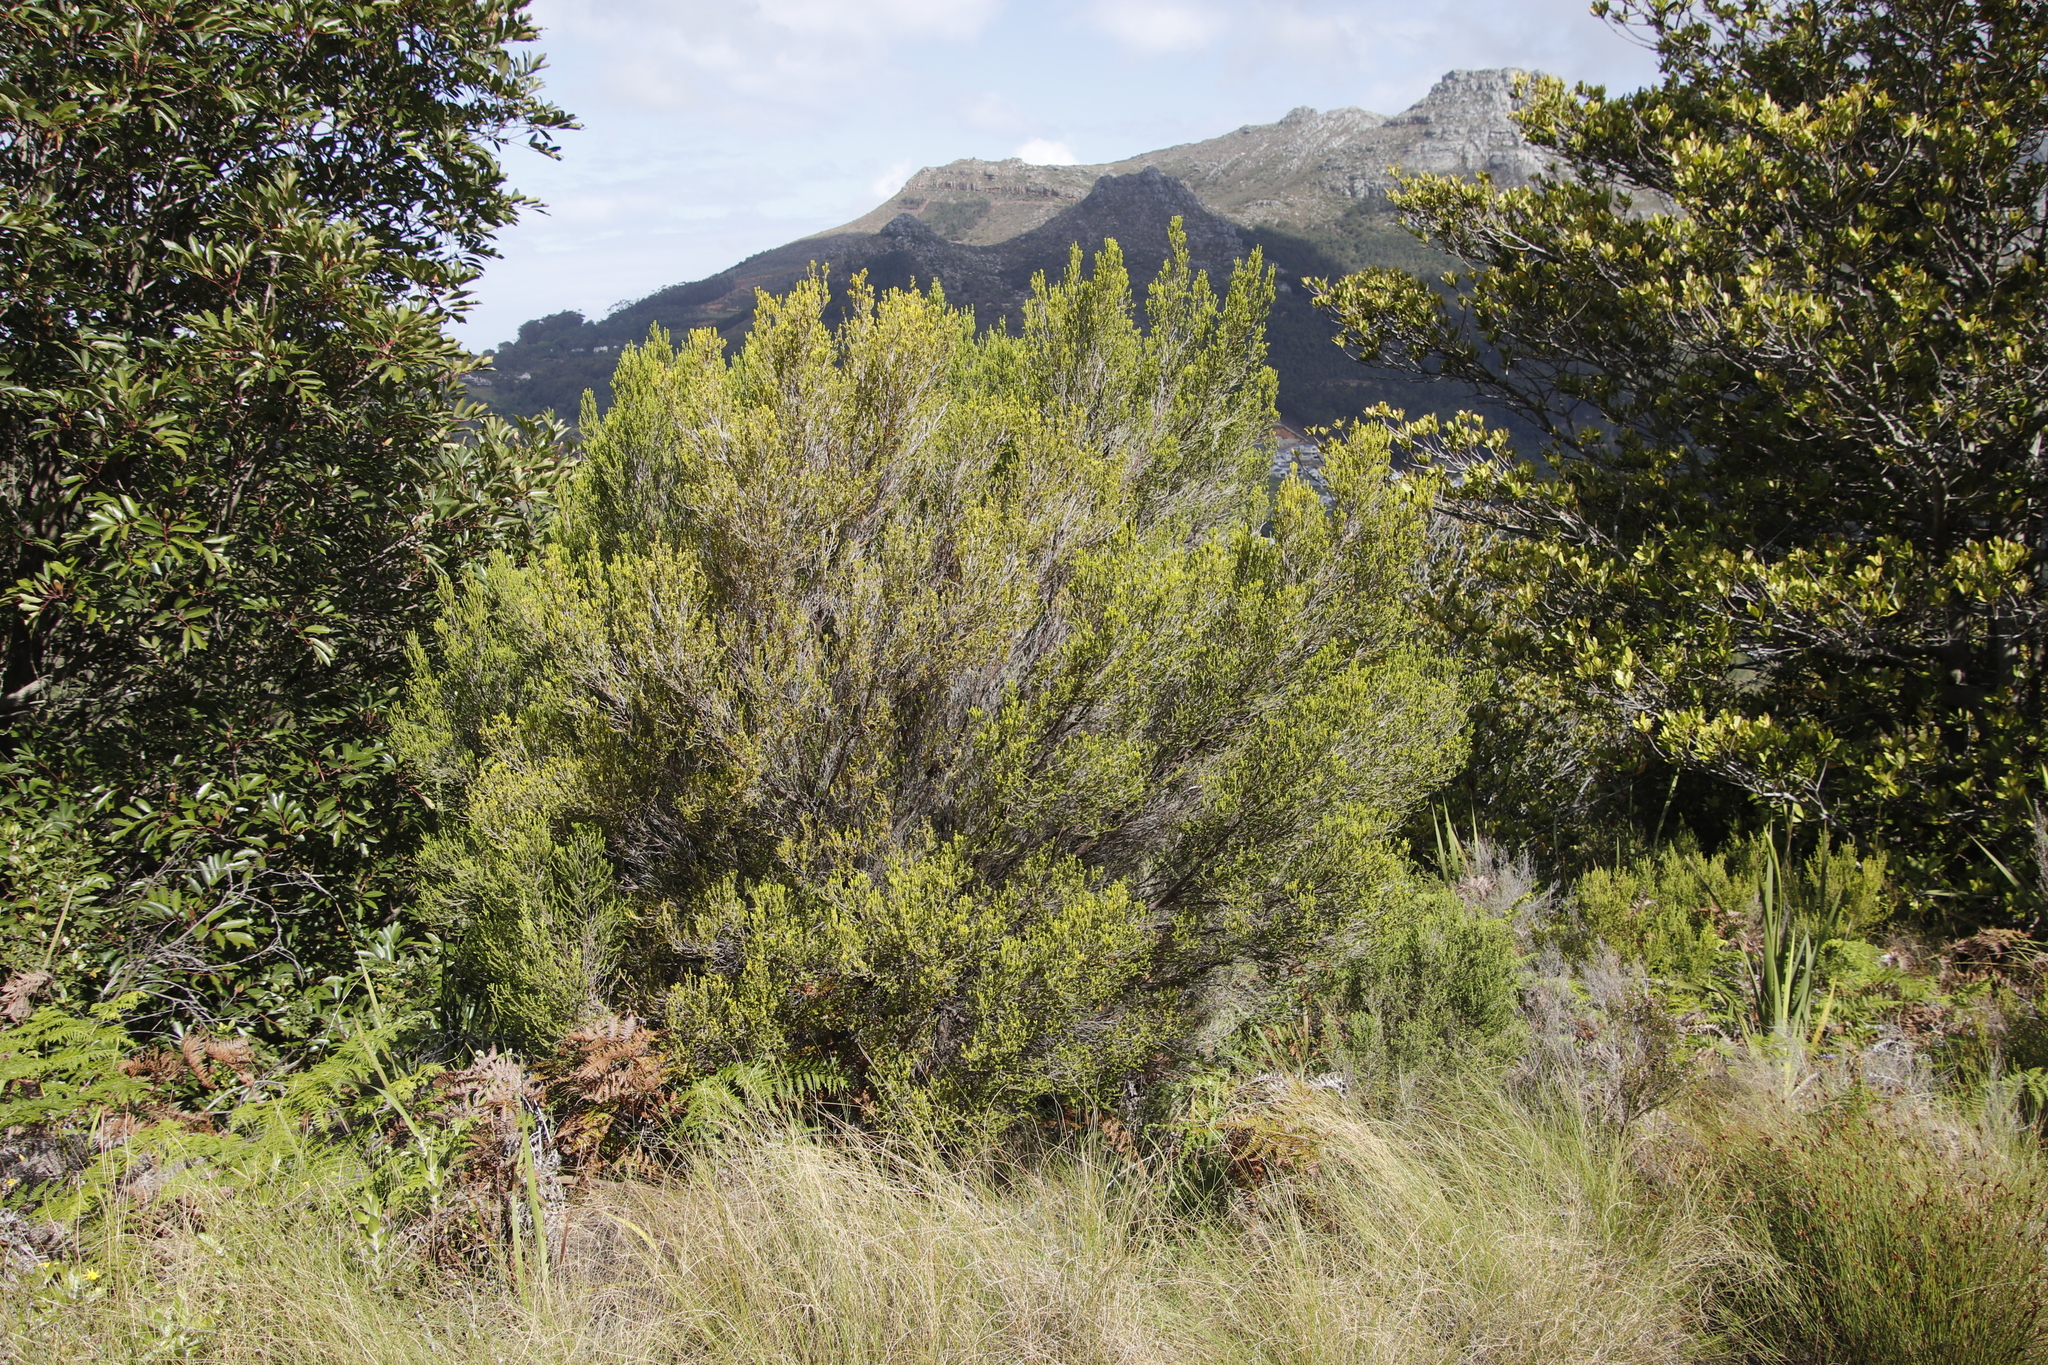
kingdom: Plantae
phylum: Tracheophyta
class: Magnoliopsida
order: Ericales
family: Ericaceae
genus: Erica
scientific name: Erica tristis
